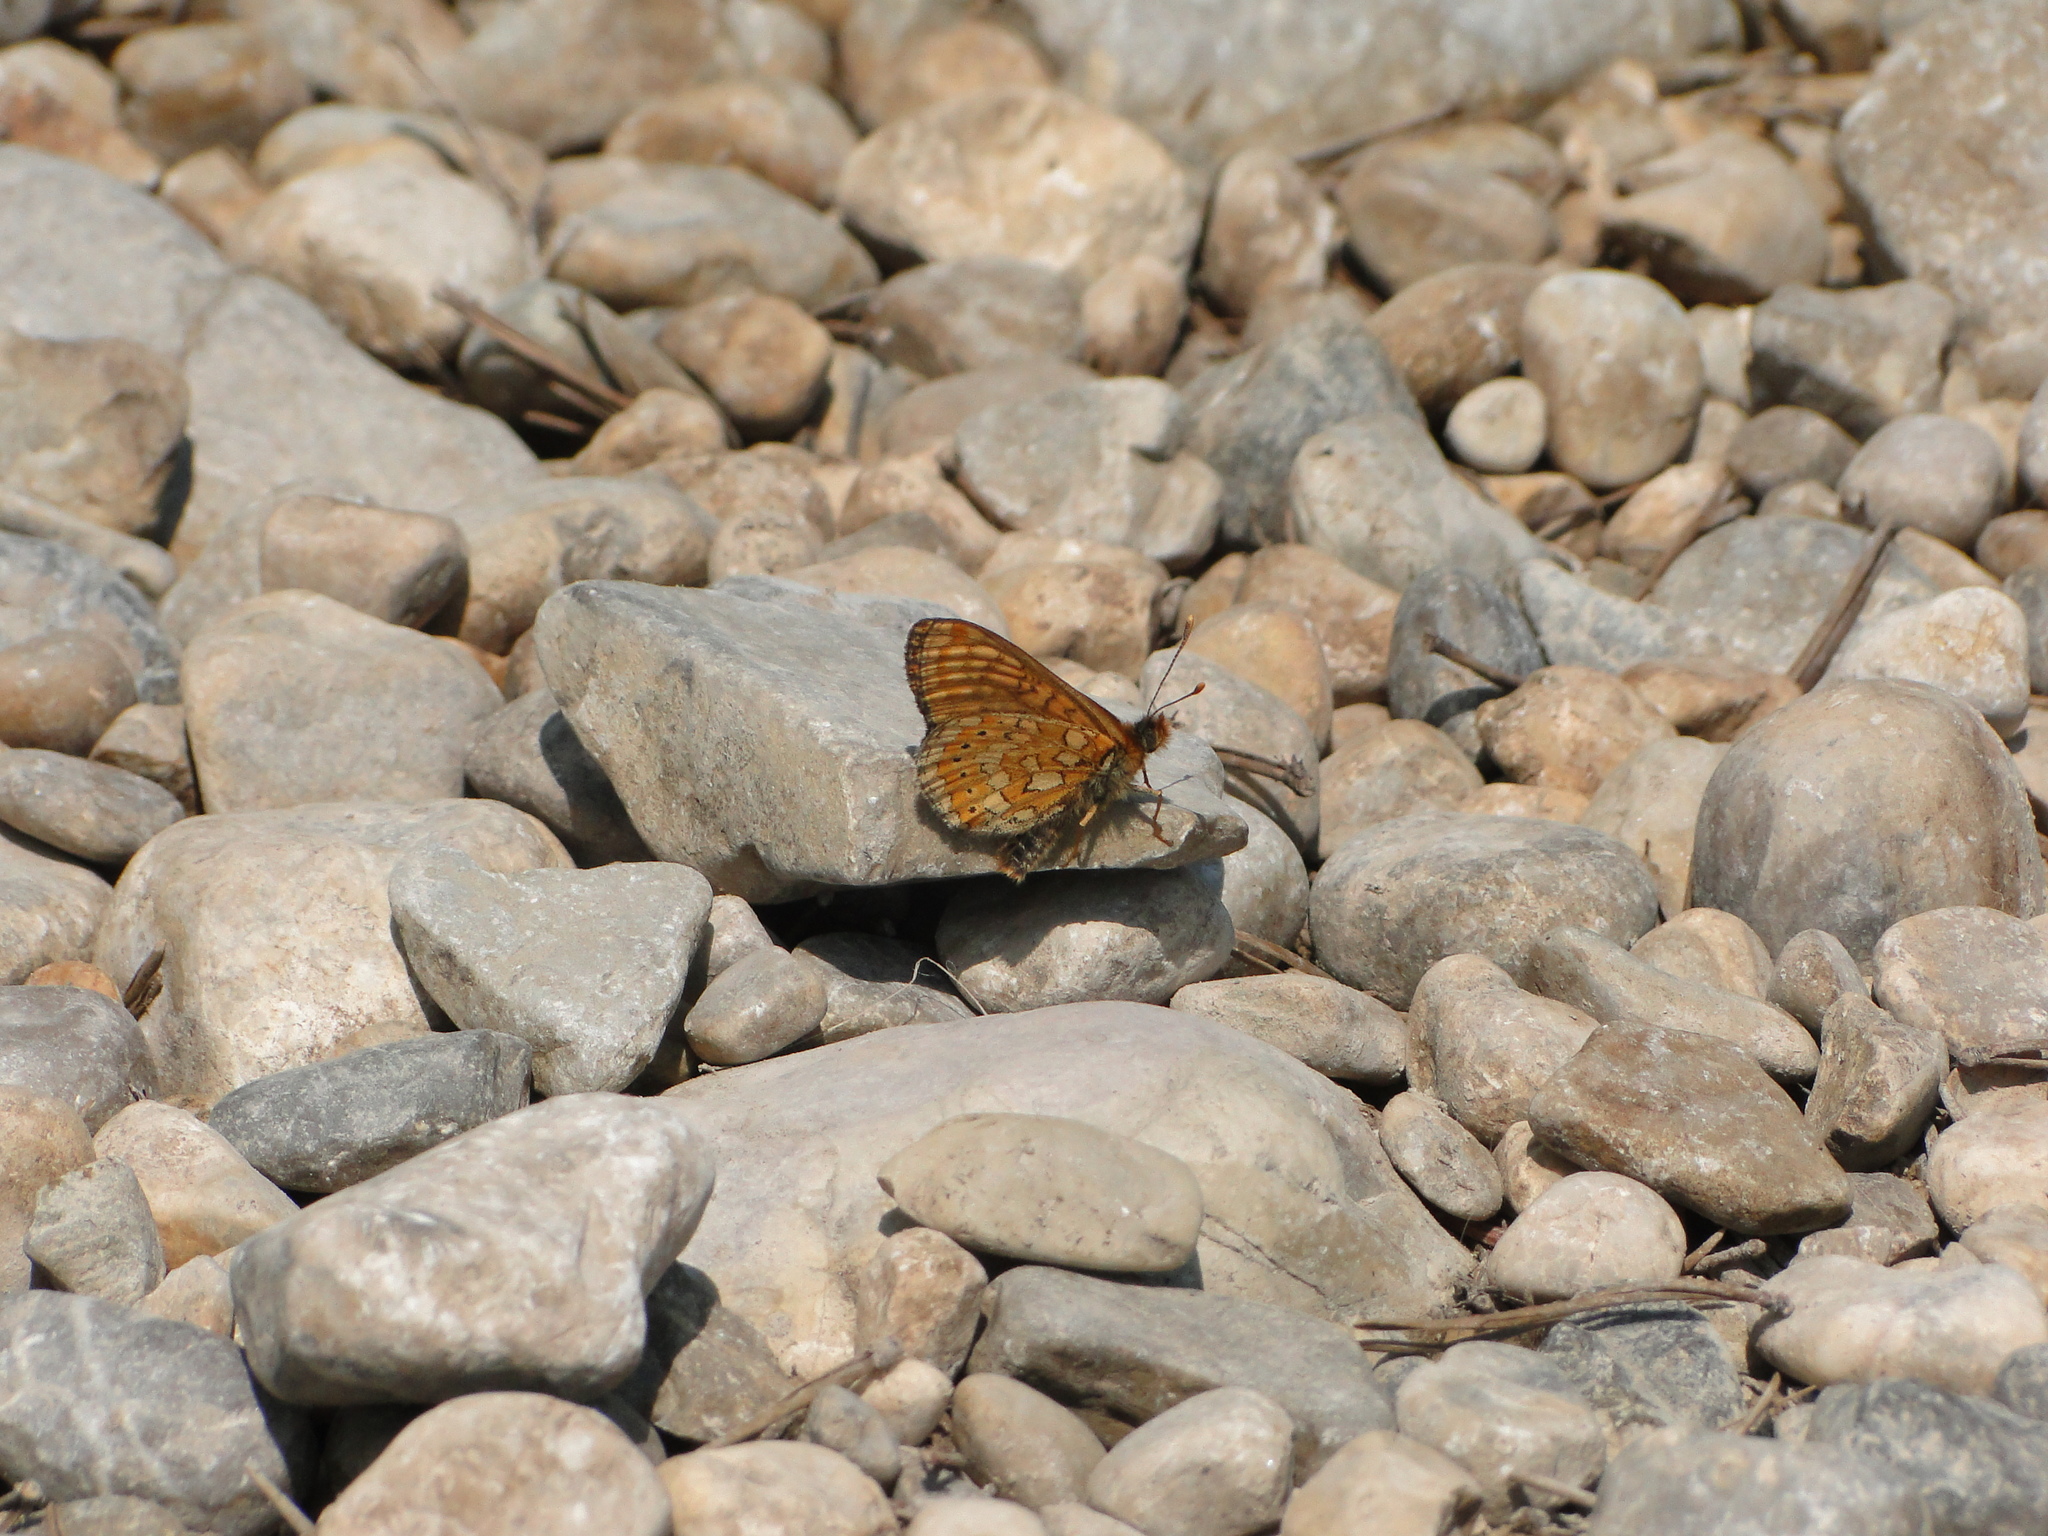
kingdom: Animalia
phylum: Arthropoda
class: Insecta
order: Lepidoptera
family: Nymphalidae
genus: Euphydryas
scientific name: Euphydryas aurinia
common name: Marsh fritillary
